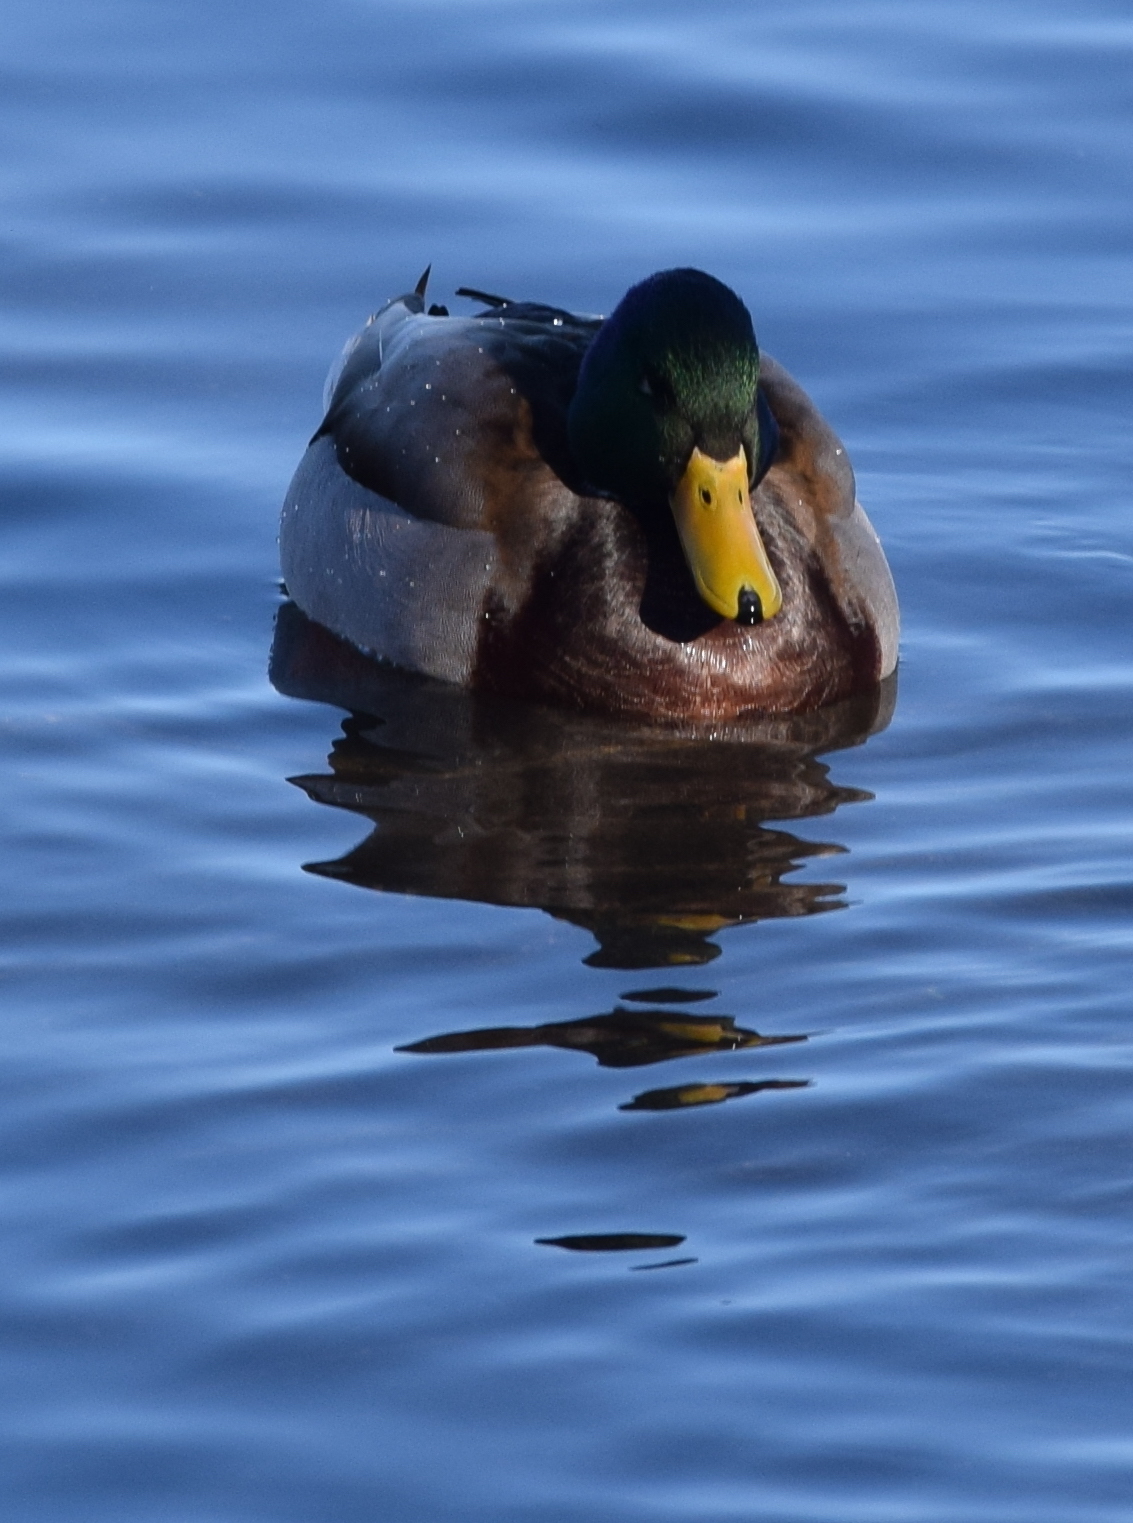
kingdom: Animalia
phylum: Chordata
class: Aves
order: Anseriformes
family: Anatidae
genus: Anas
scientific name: Anas platyrhynchos
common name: Mallard
